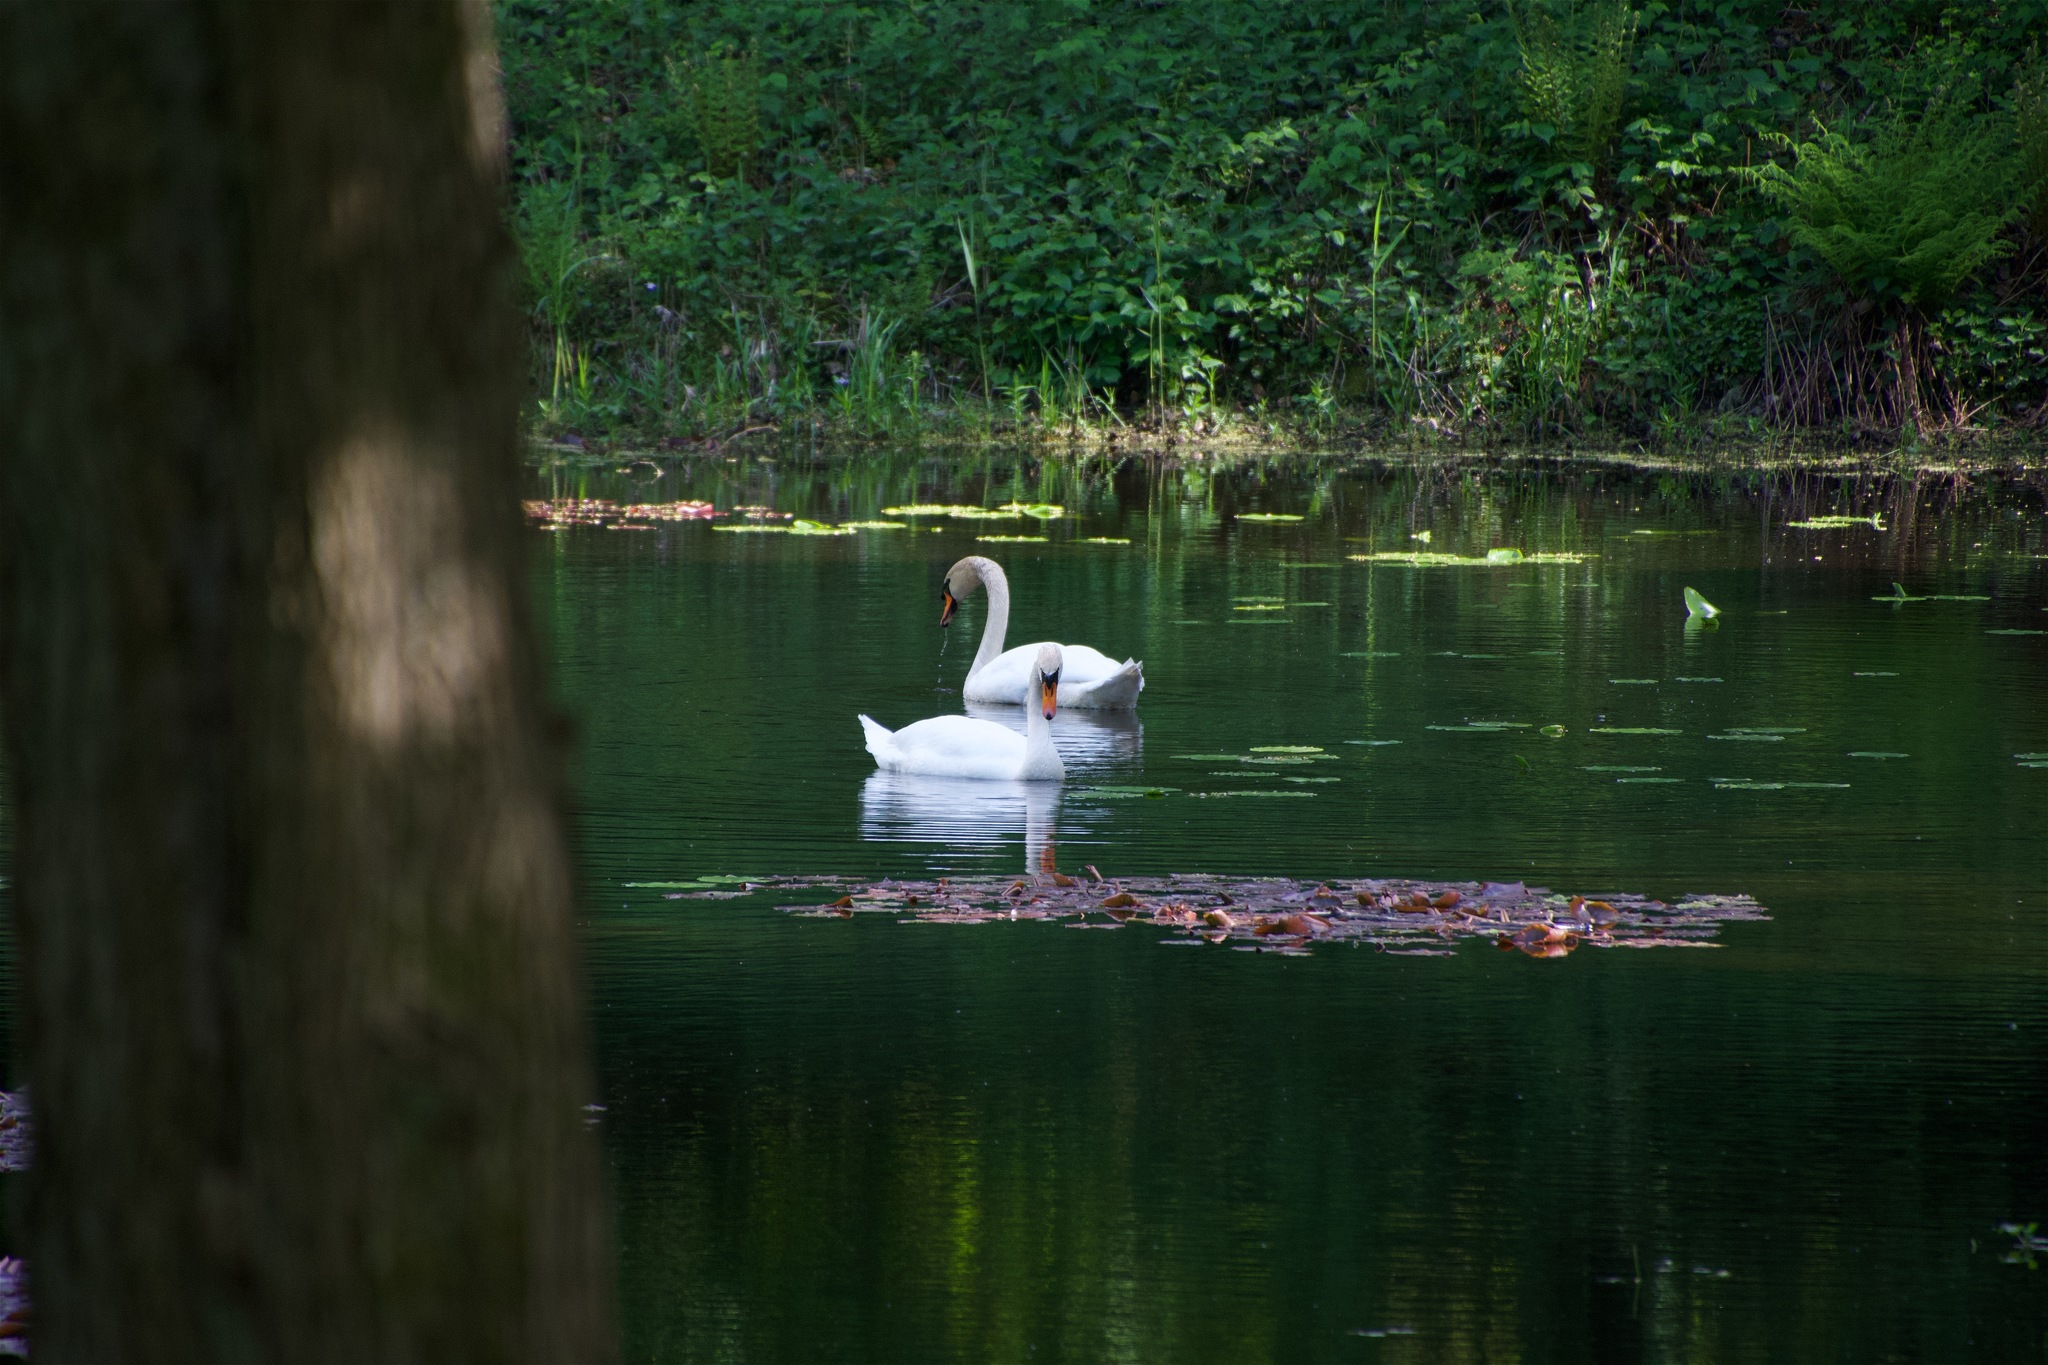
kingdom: Animalia
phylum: Chordata
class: Aves
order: Anseriformes
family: Anatidae
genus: Cygnus
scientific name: Cygnus olor
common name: Mute swan
